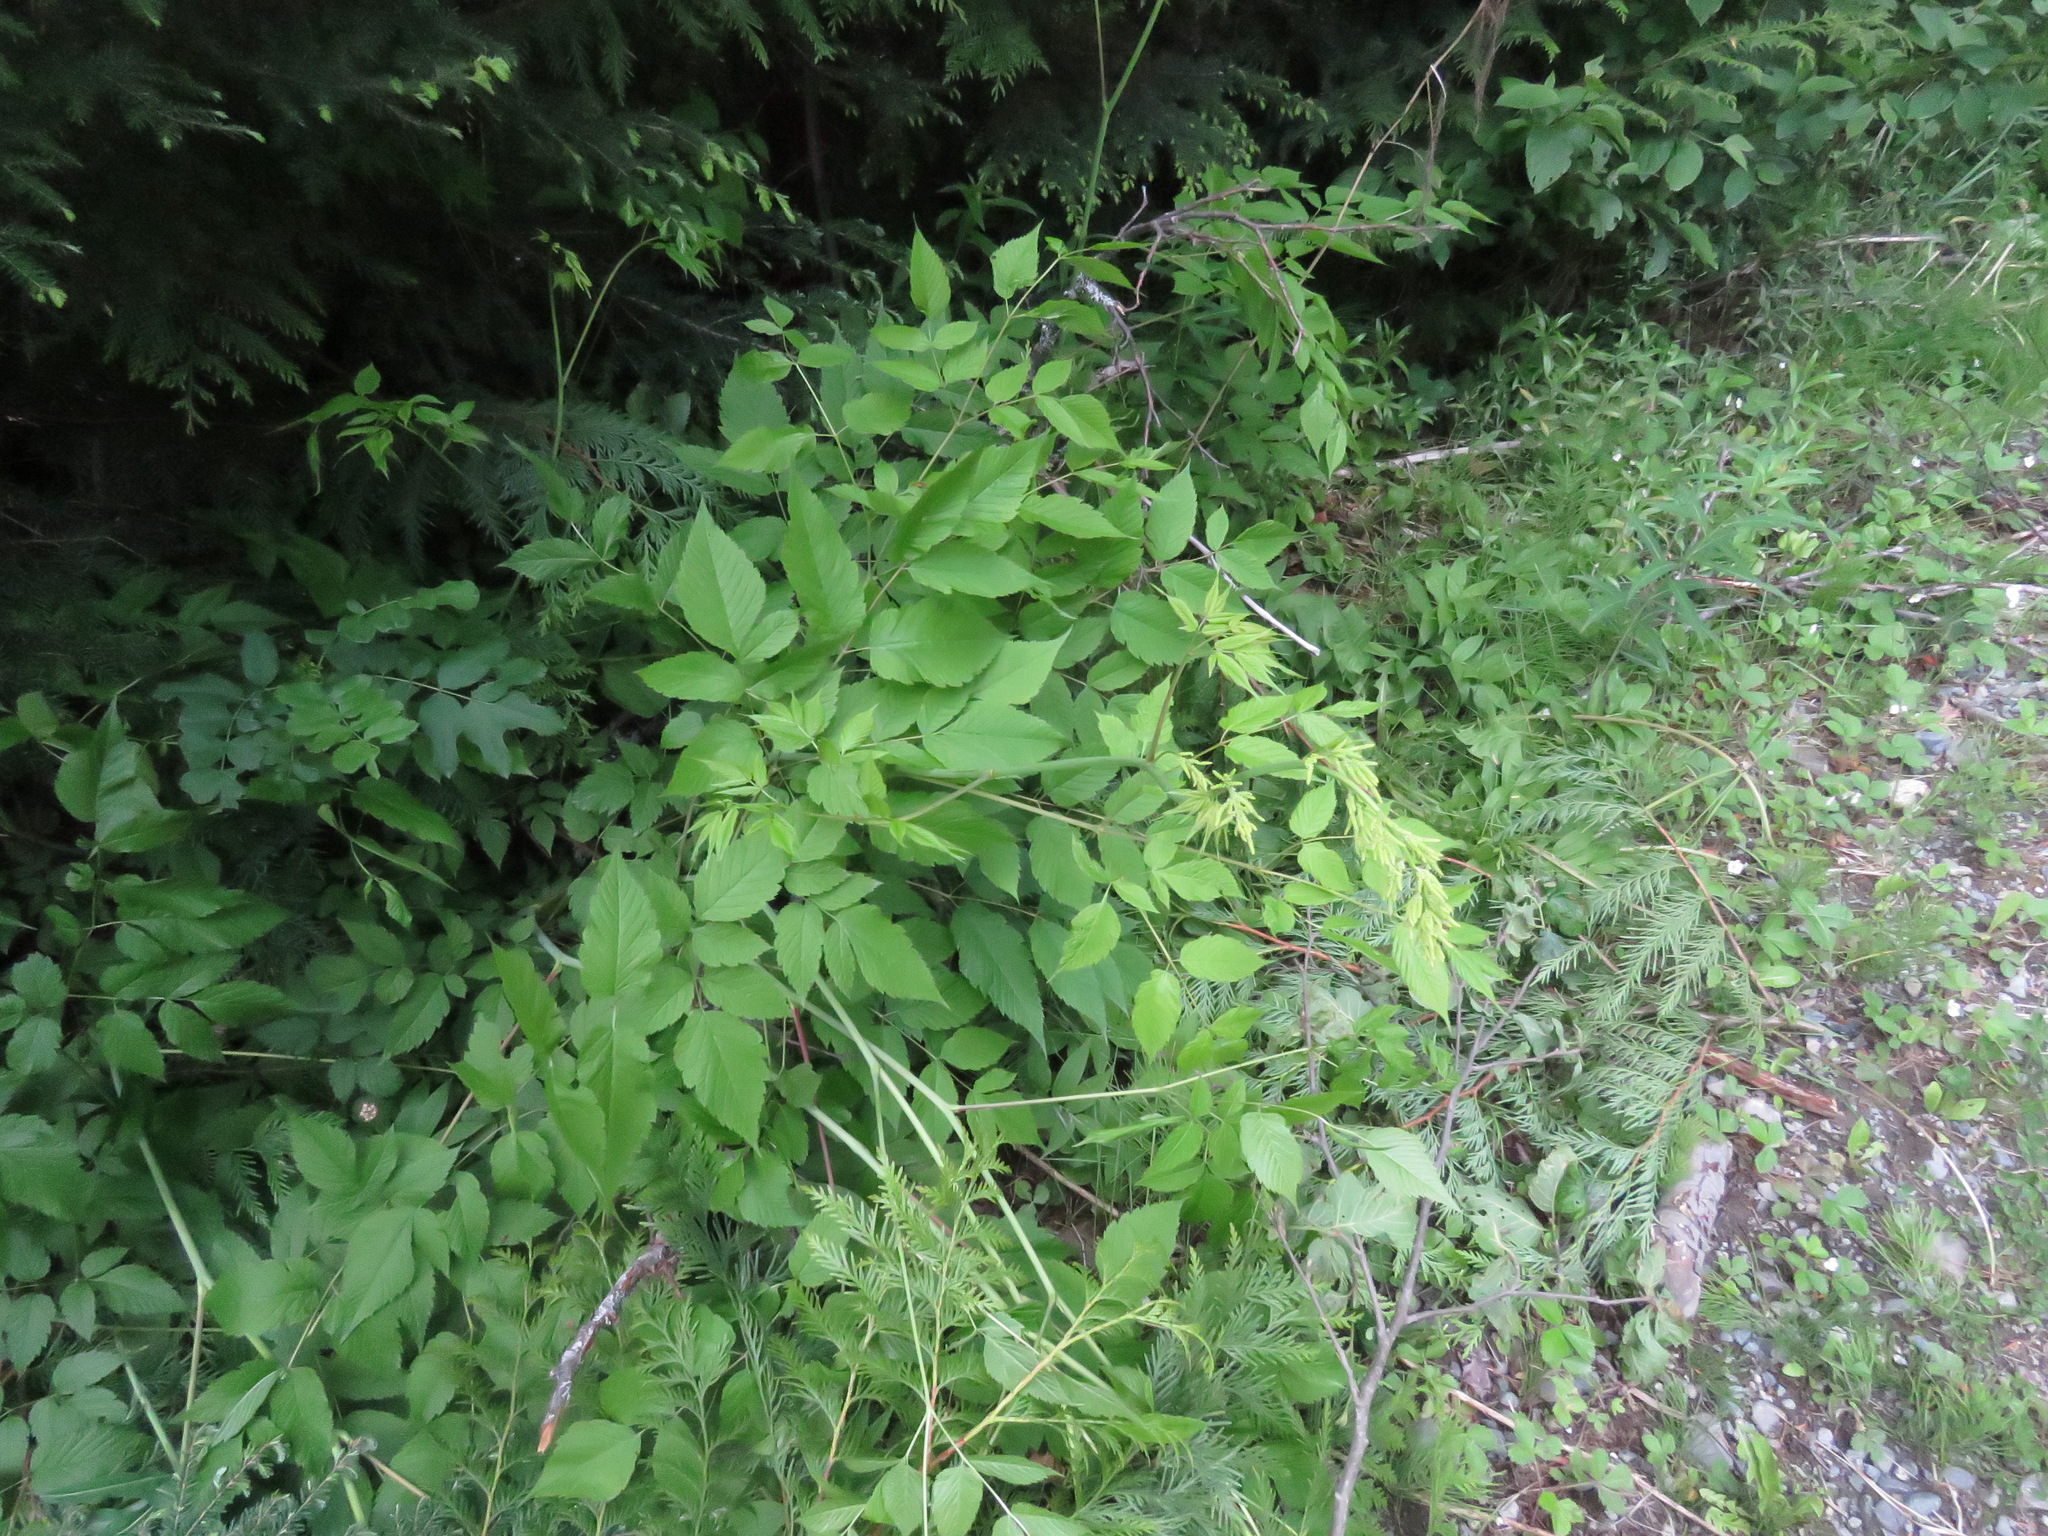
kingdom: Plantae
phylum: Tracheophyta
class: Magnoliopsida
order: Rosales
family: Rosaceae
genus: Aruncus
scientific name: Aruncus dioicus
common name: Buck's-beard
